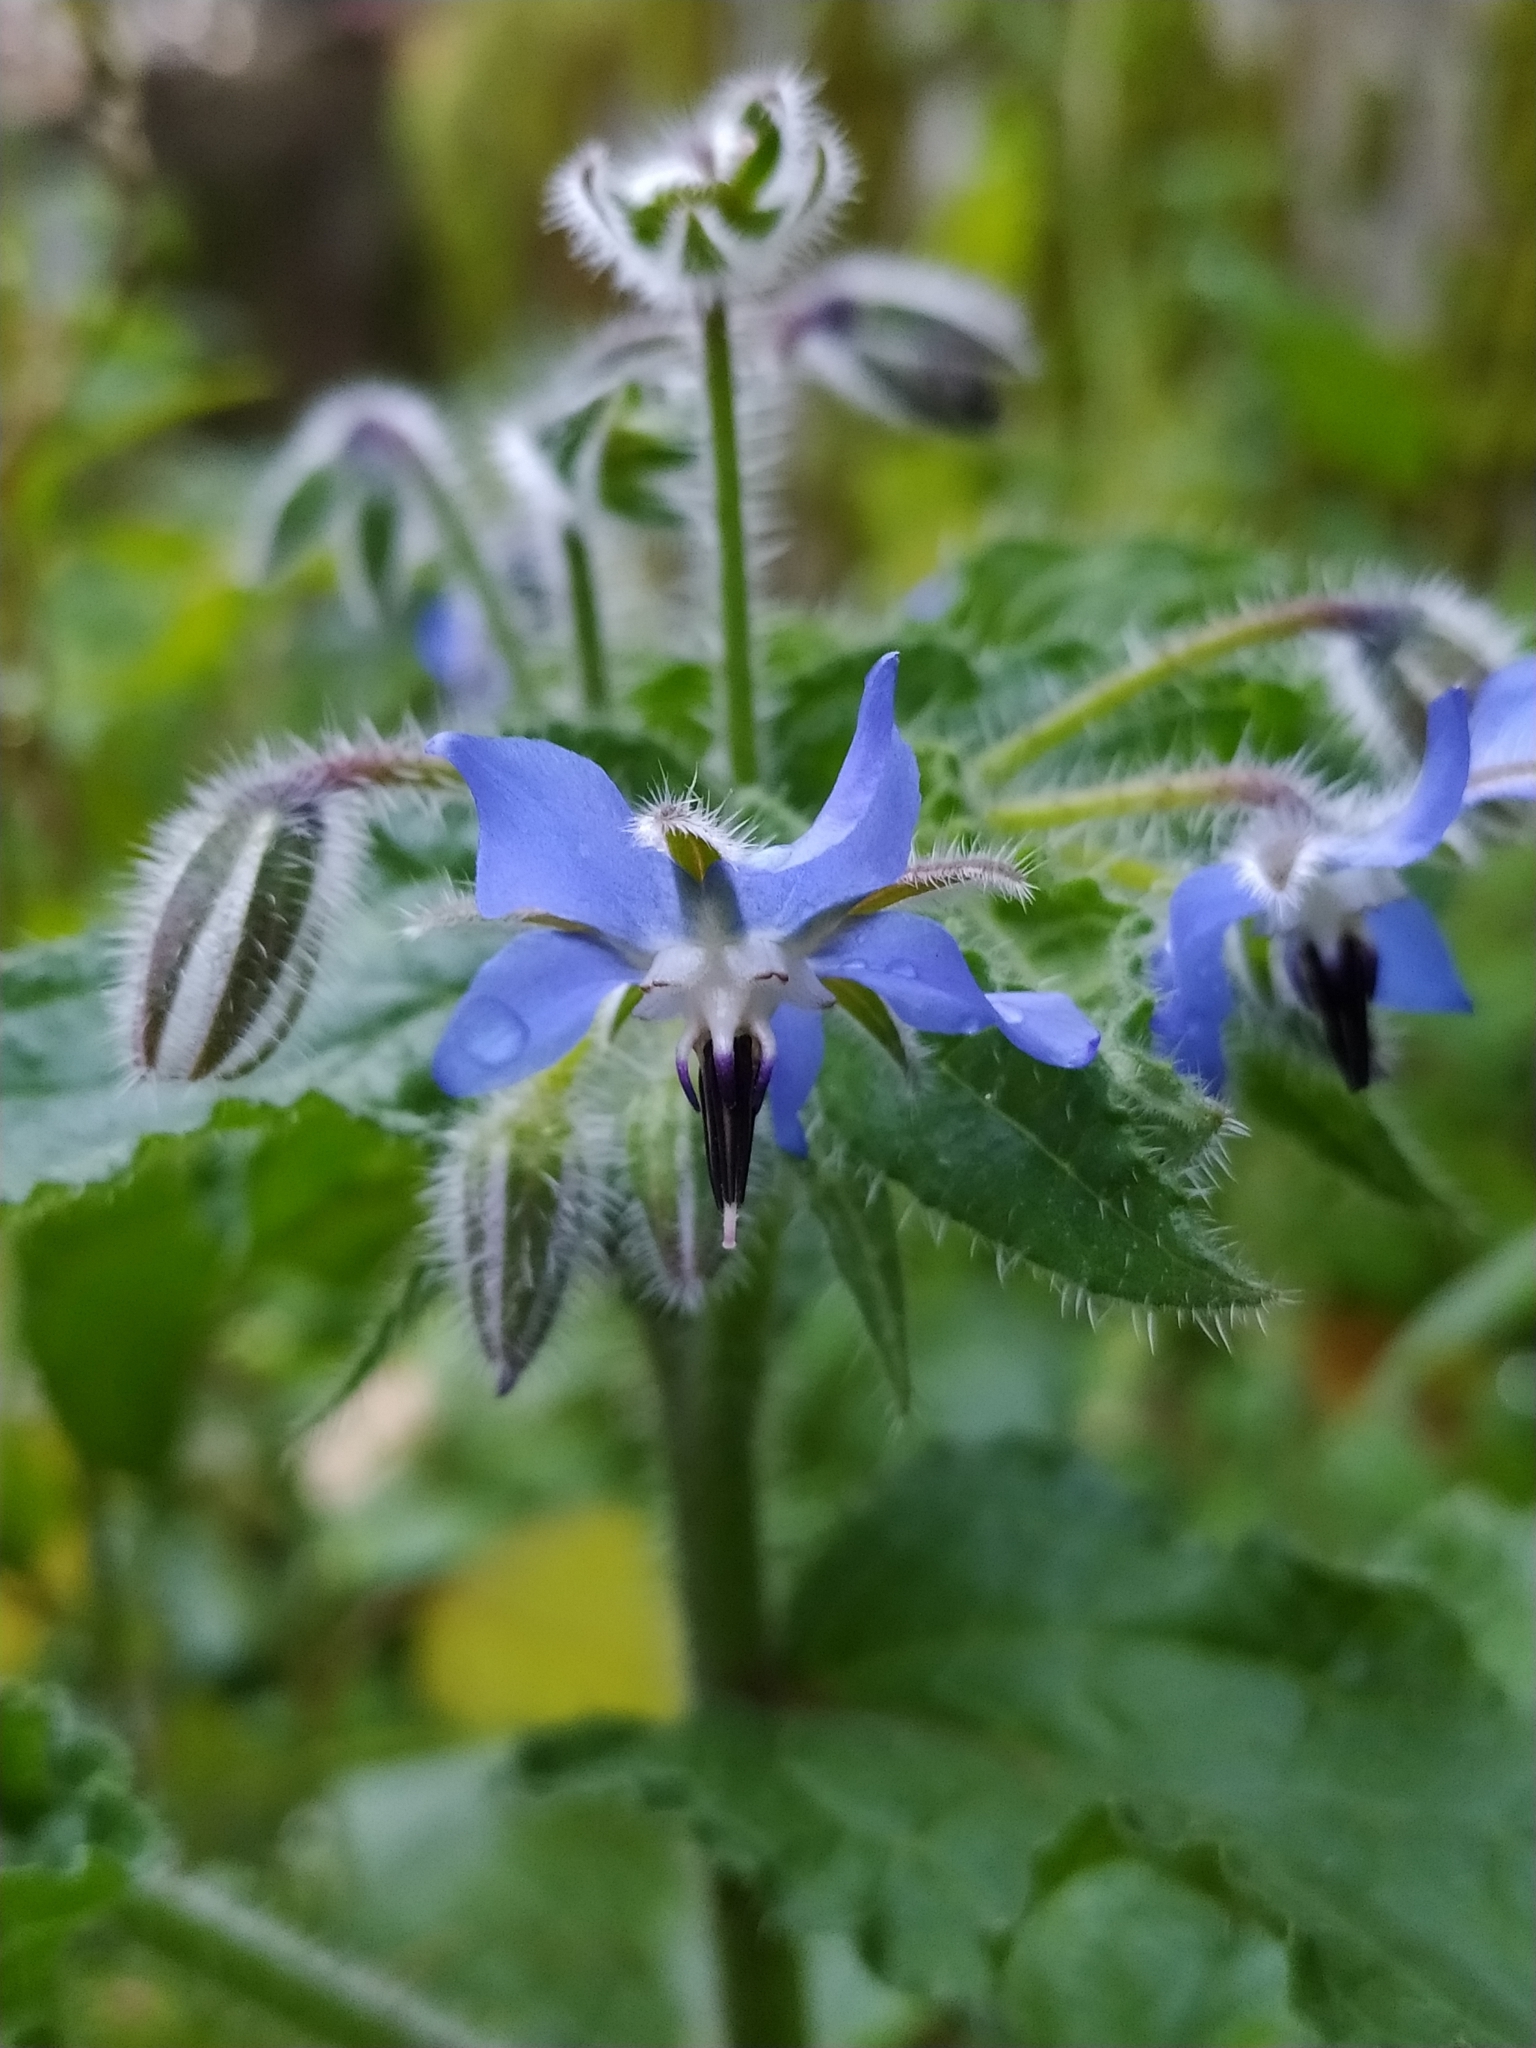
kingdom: Plantae
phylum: Tracheophyta
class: Magnoliopsida
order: Boraginales
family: Boraginaceae
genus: Borago
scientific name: Borago officinalis
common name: Borage
